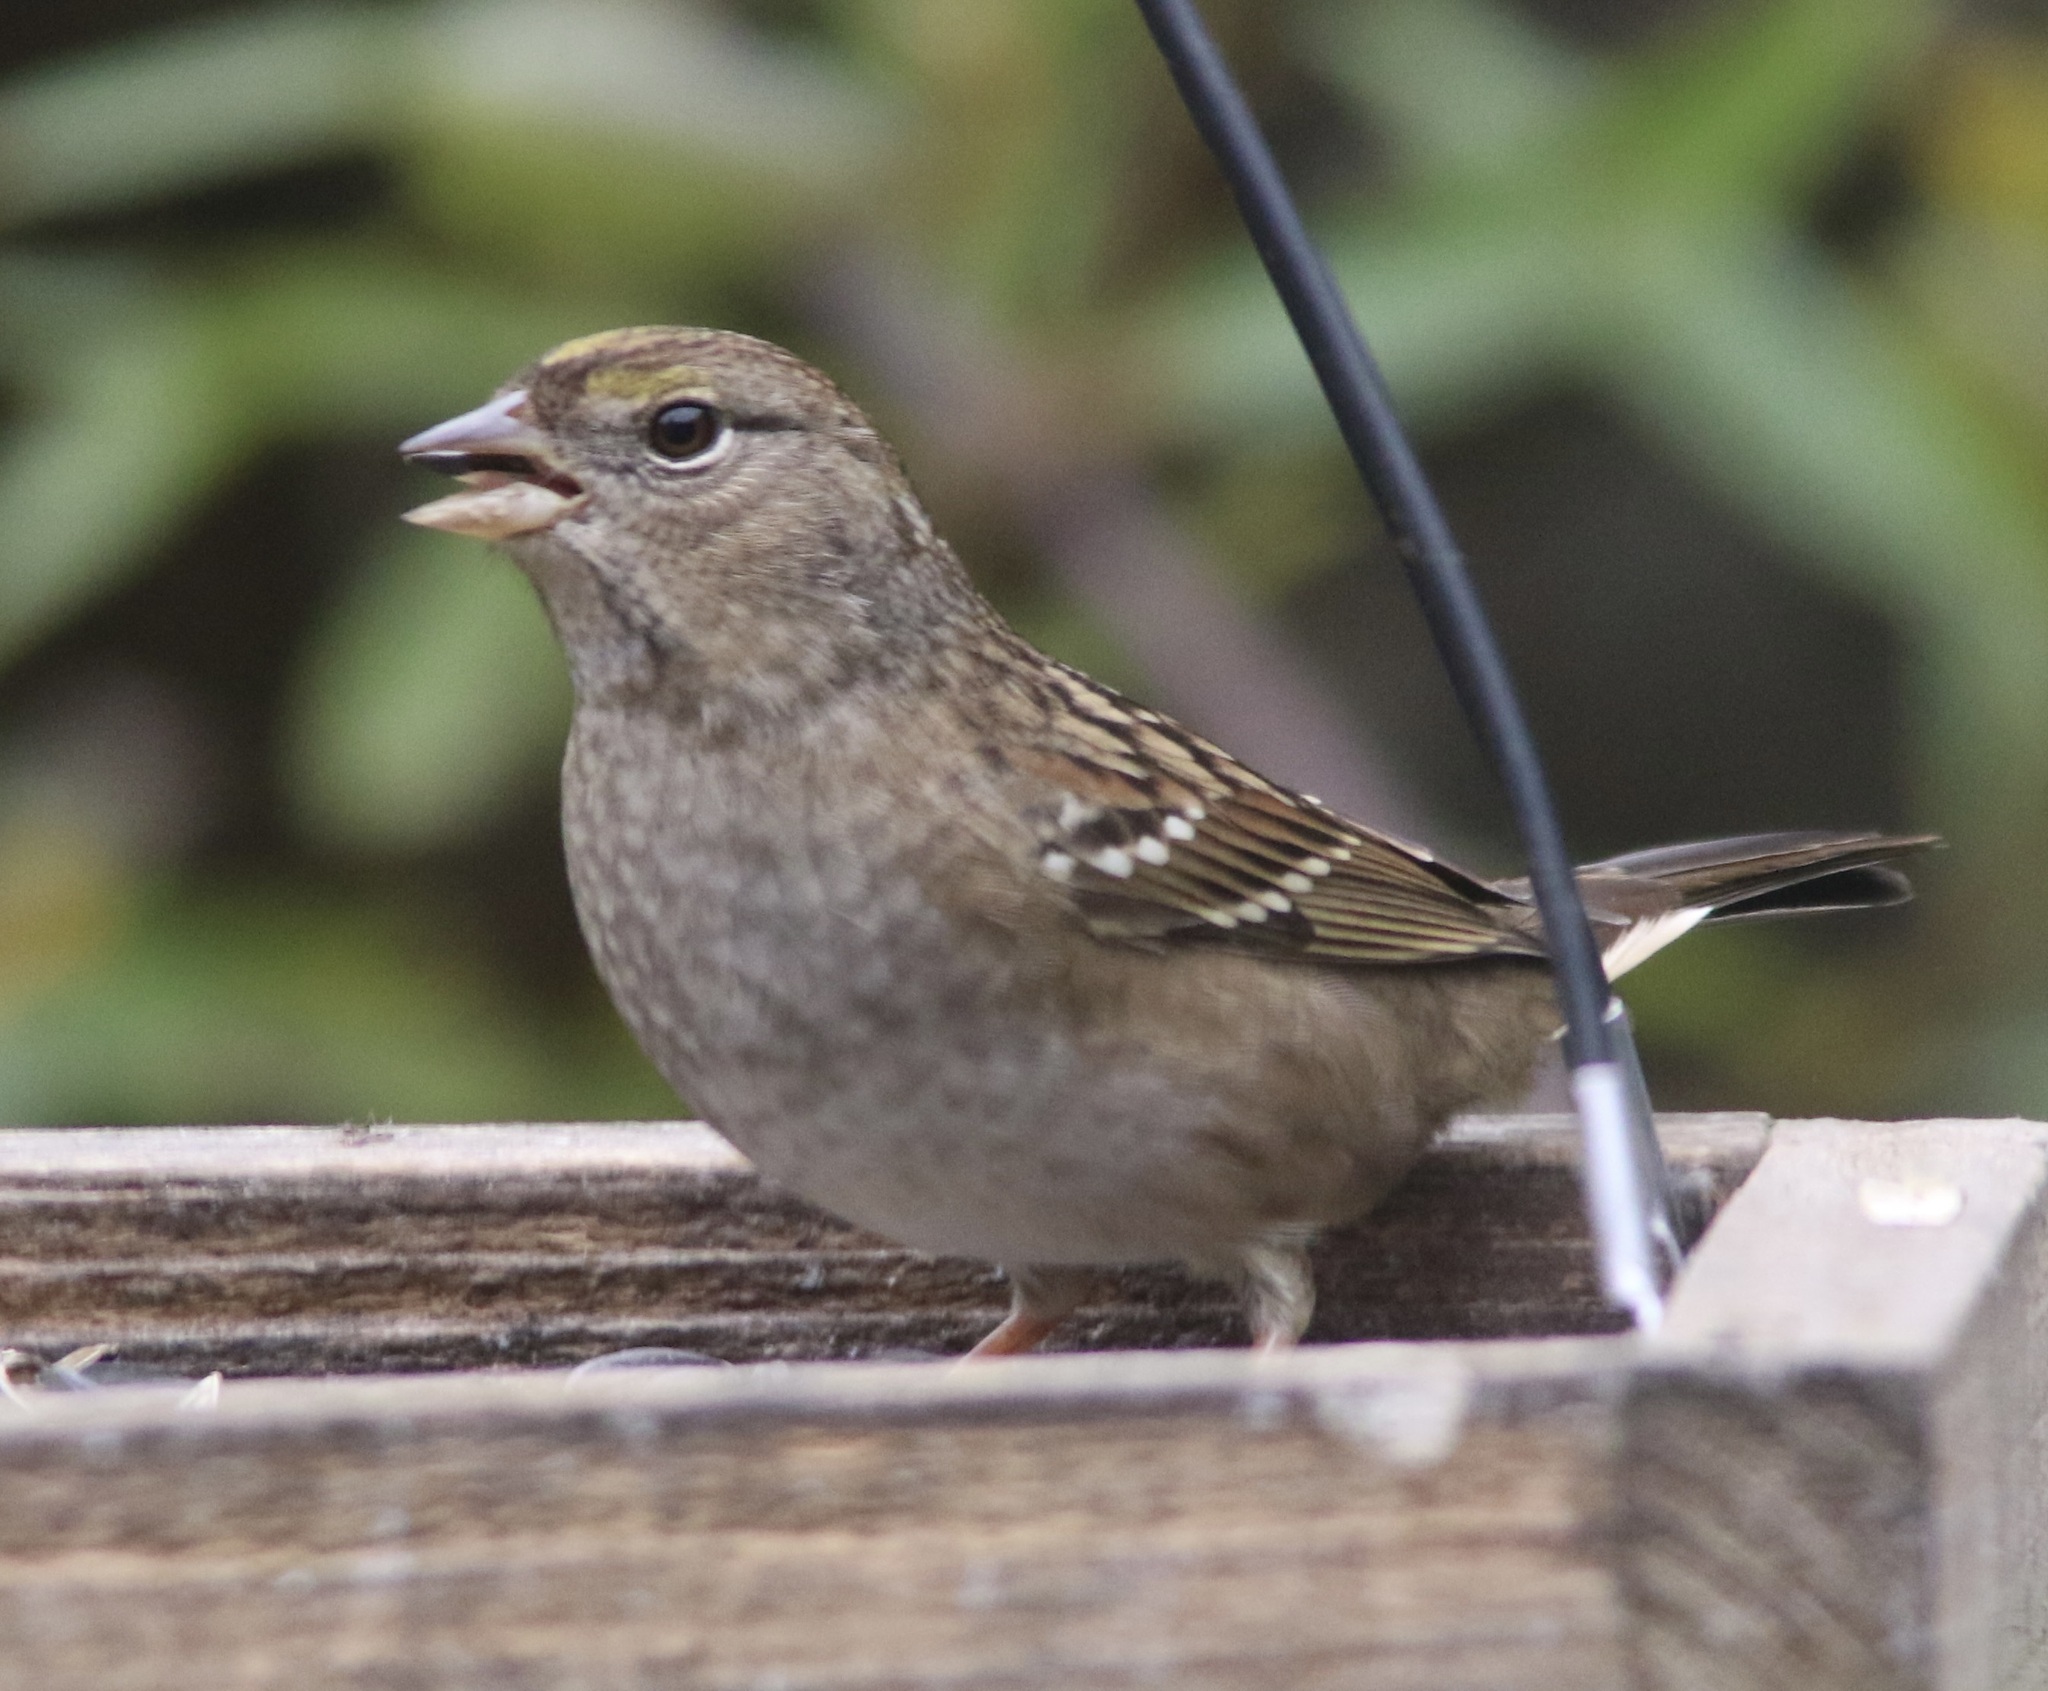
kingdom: Animalia
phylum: Chordata
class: Aves
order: Passeriformes
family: Passerellidae
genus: Zonotrichia
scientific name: Zonotrichia atricapilla
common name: Golden-crowned sparrow
